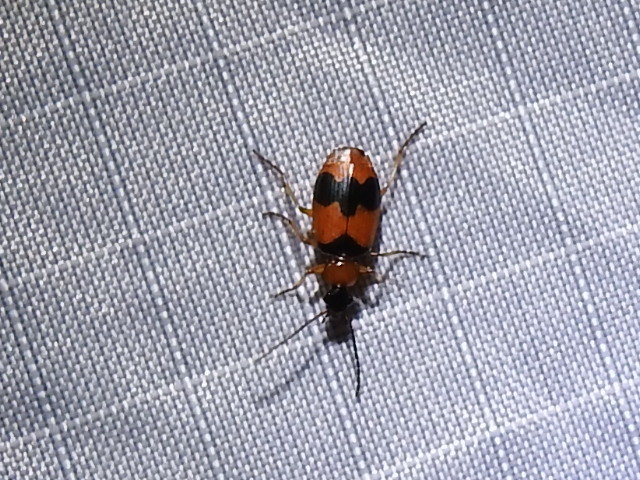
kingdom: Animalia
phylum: Arthropoda
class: Insecta
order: Coleoptera
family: Carabidae
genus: Lebia
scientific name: Lebia pulchella
